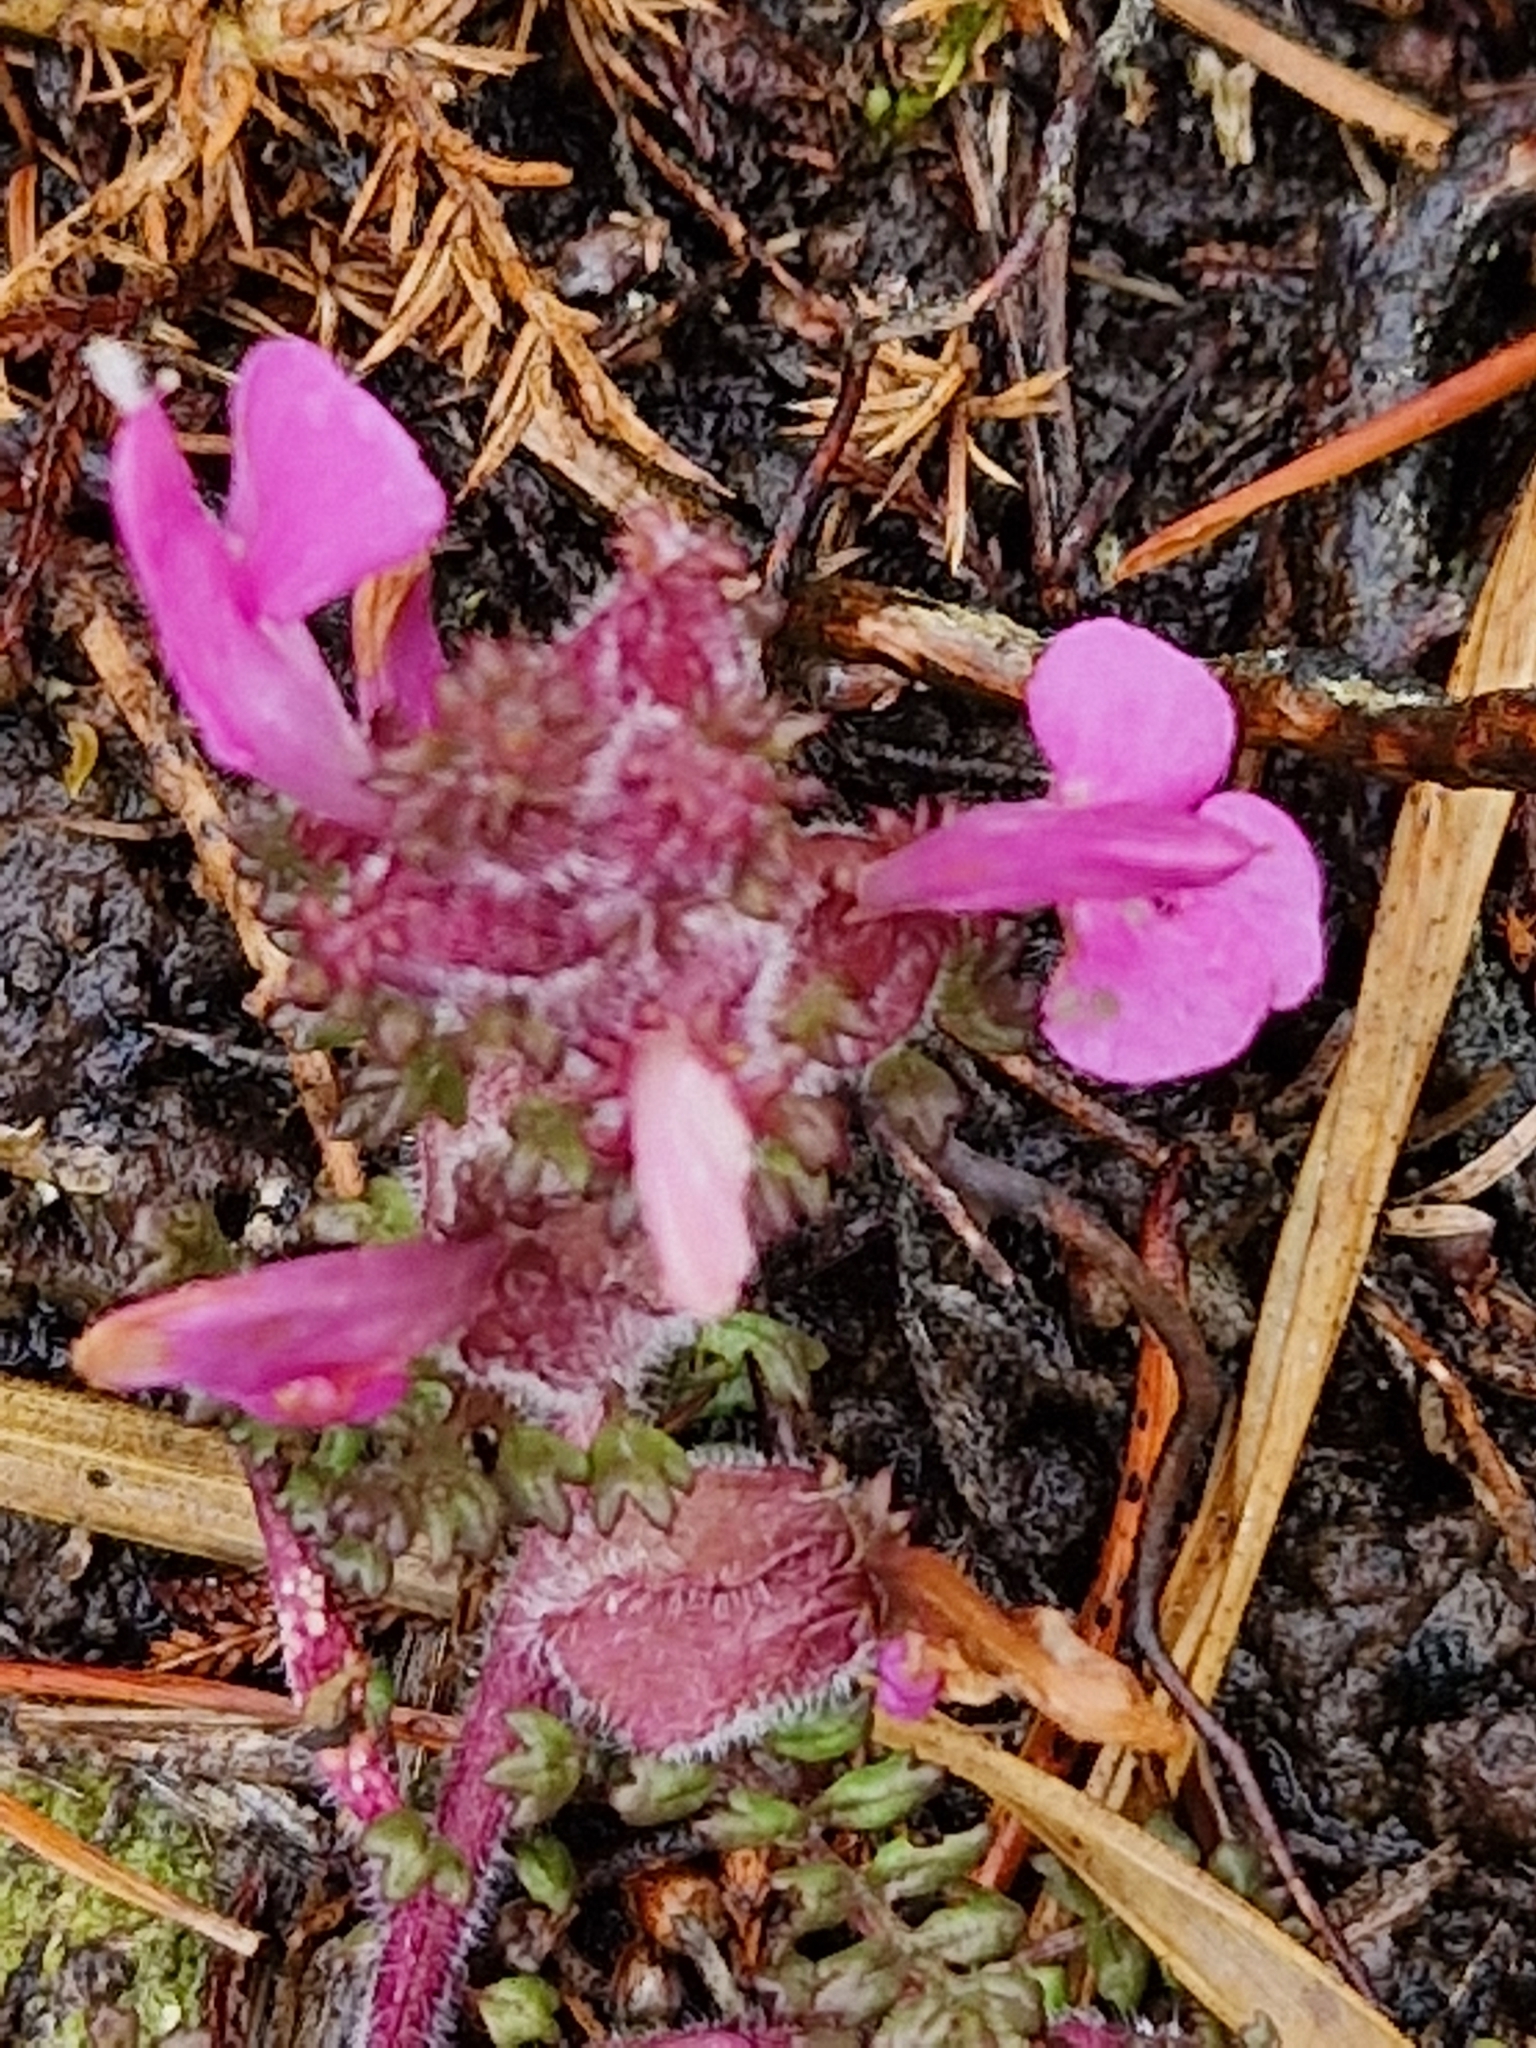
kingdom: Plantae
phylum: Tracheophyta
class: Magnoliopsida
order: Lamiales
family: Orobanchaceae
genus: Pedicularis
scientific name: Pedicularis sylvatica
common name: Lousewort
